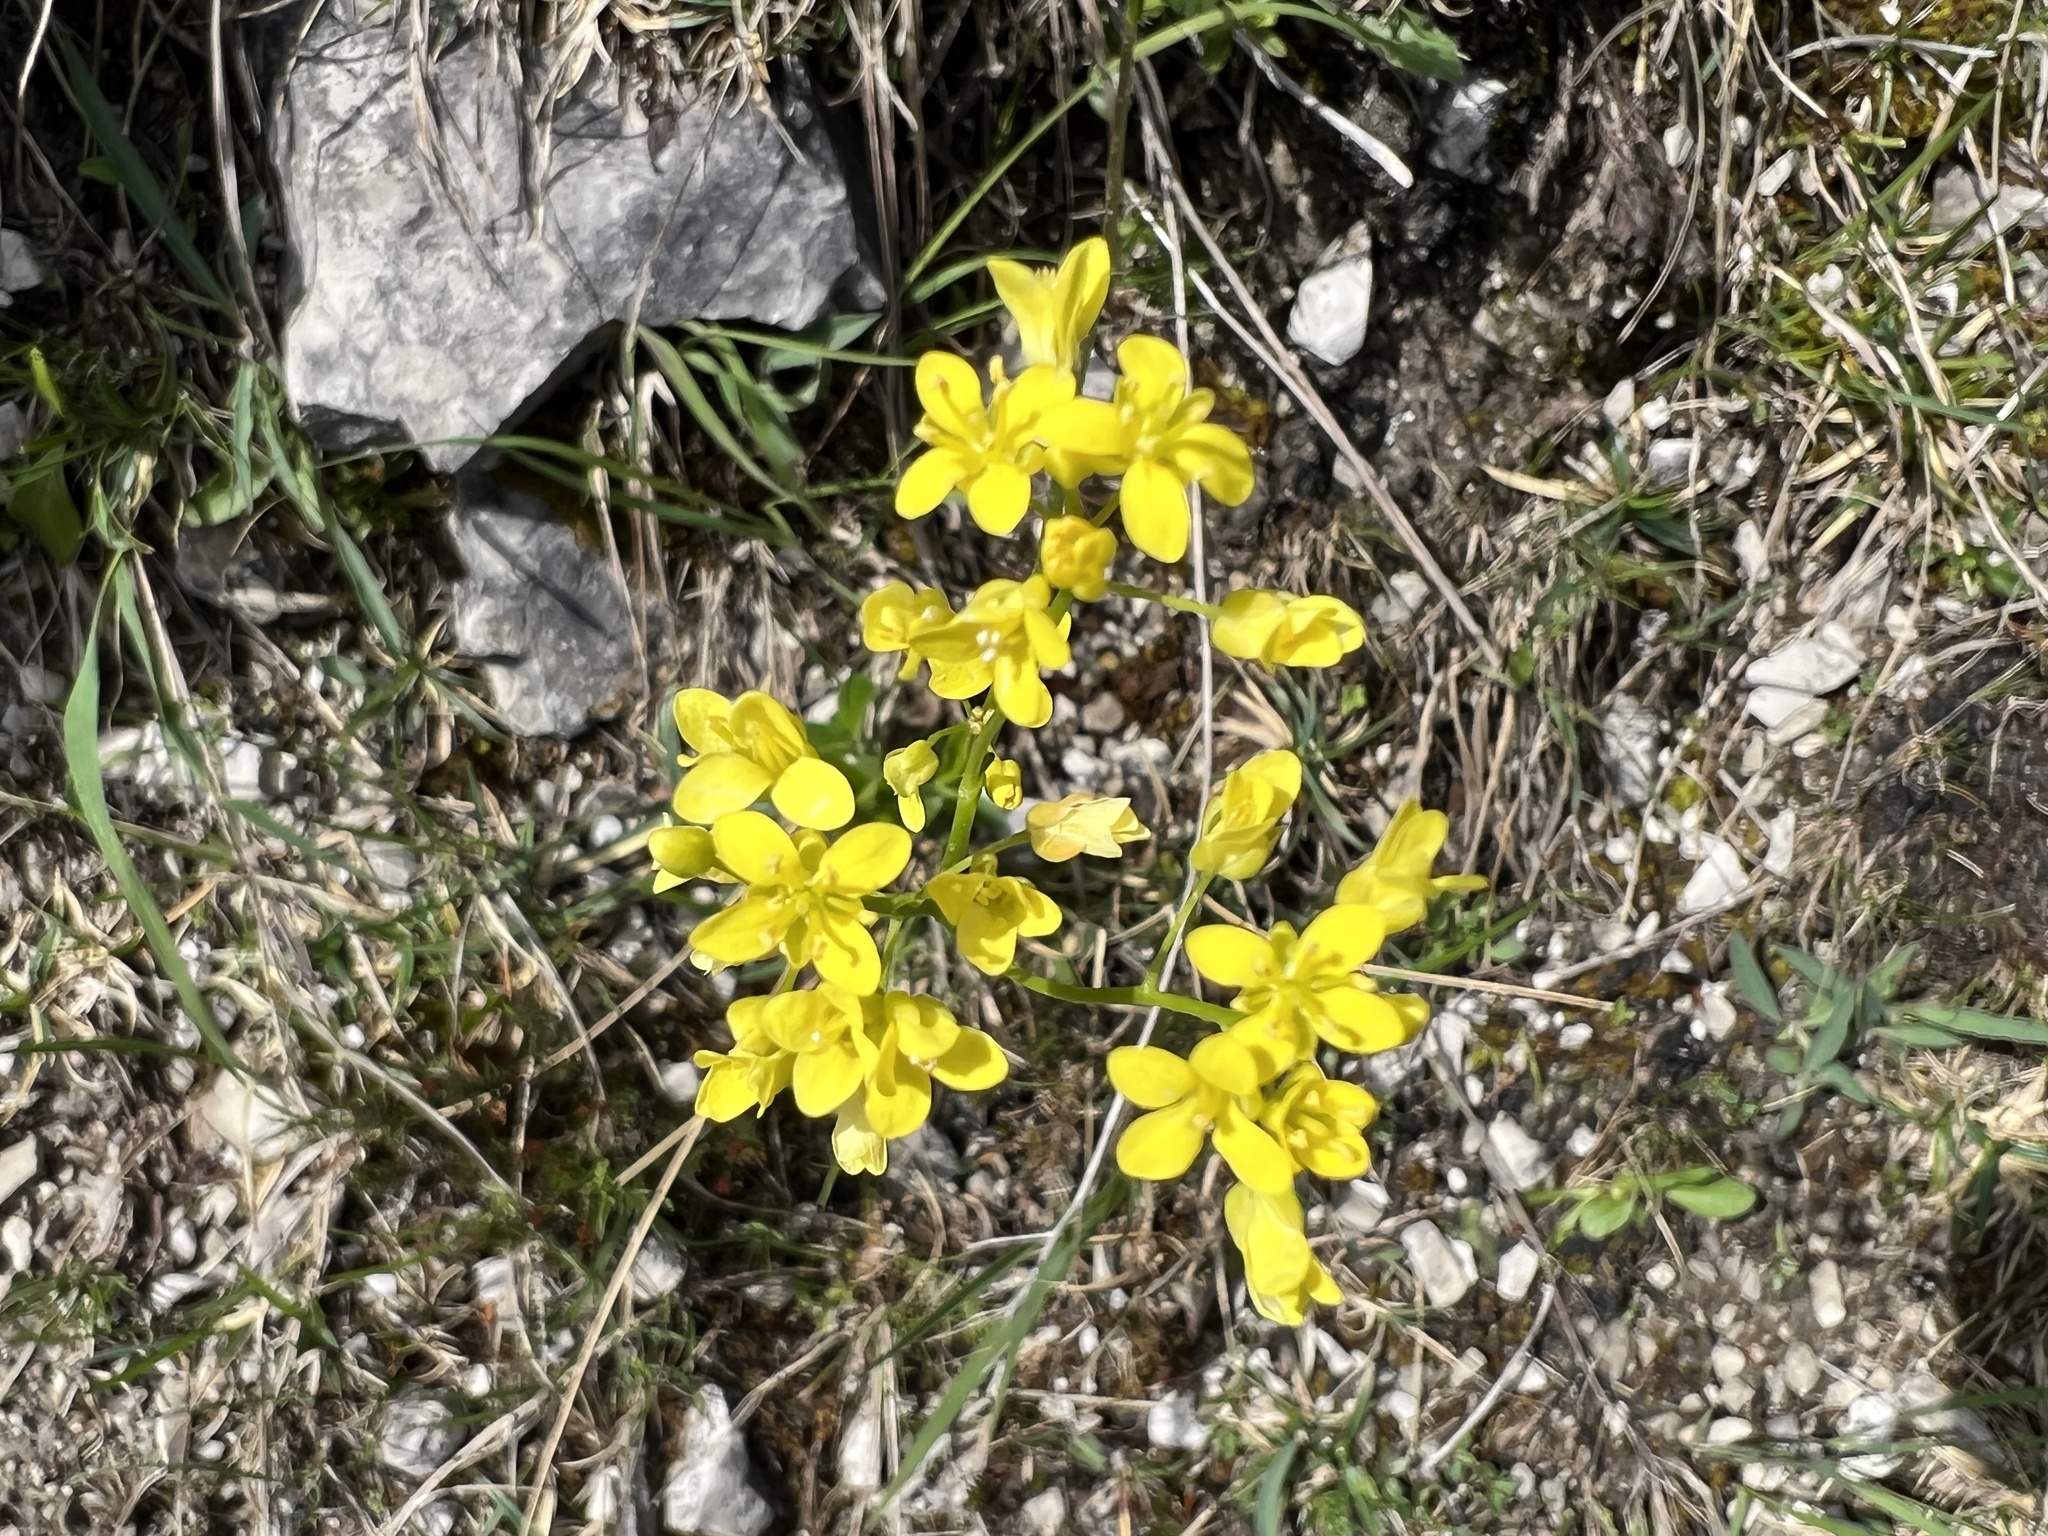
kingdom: Plantae
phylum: Tracheophyta
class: Magnoliopsida
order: Brassicales
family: Brassicaceae
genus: Biscutella
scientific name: Biscutella laevigata
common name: Buckler mustard
